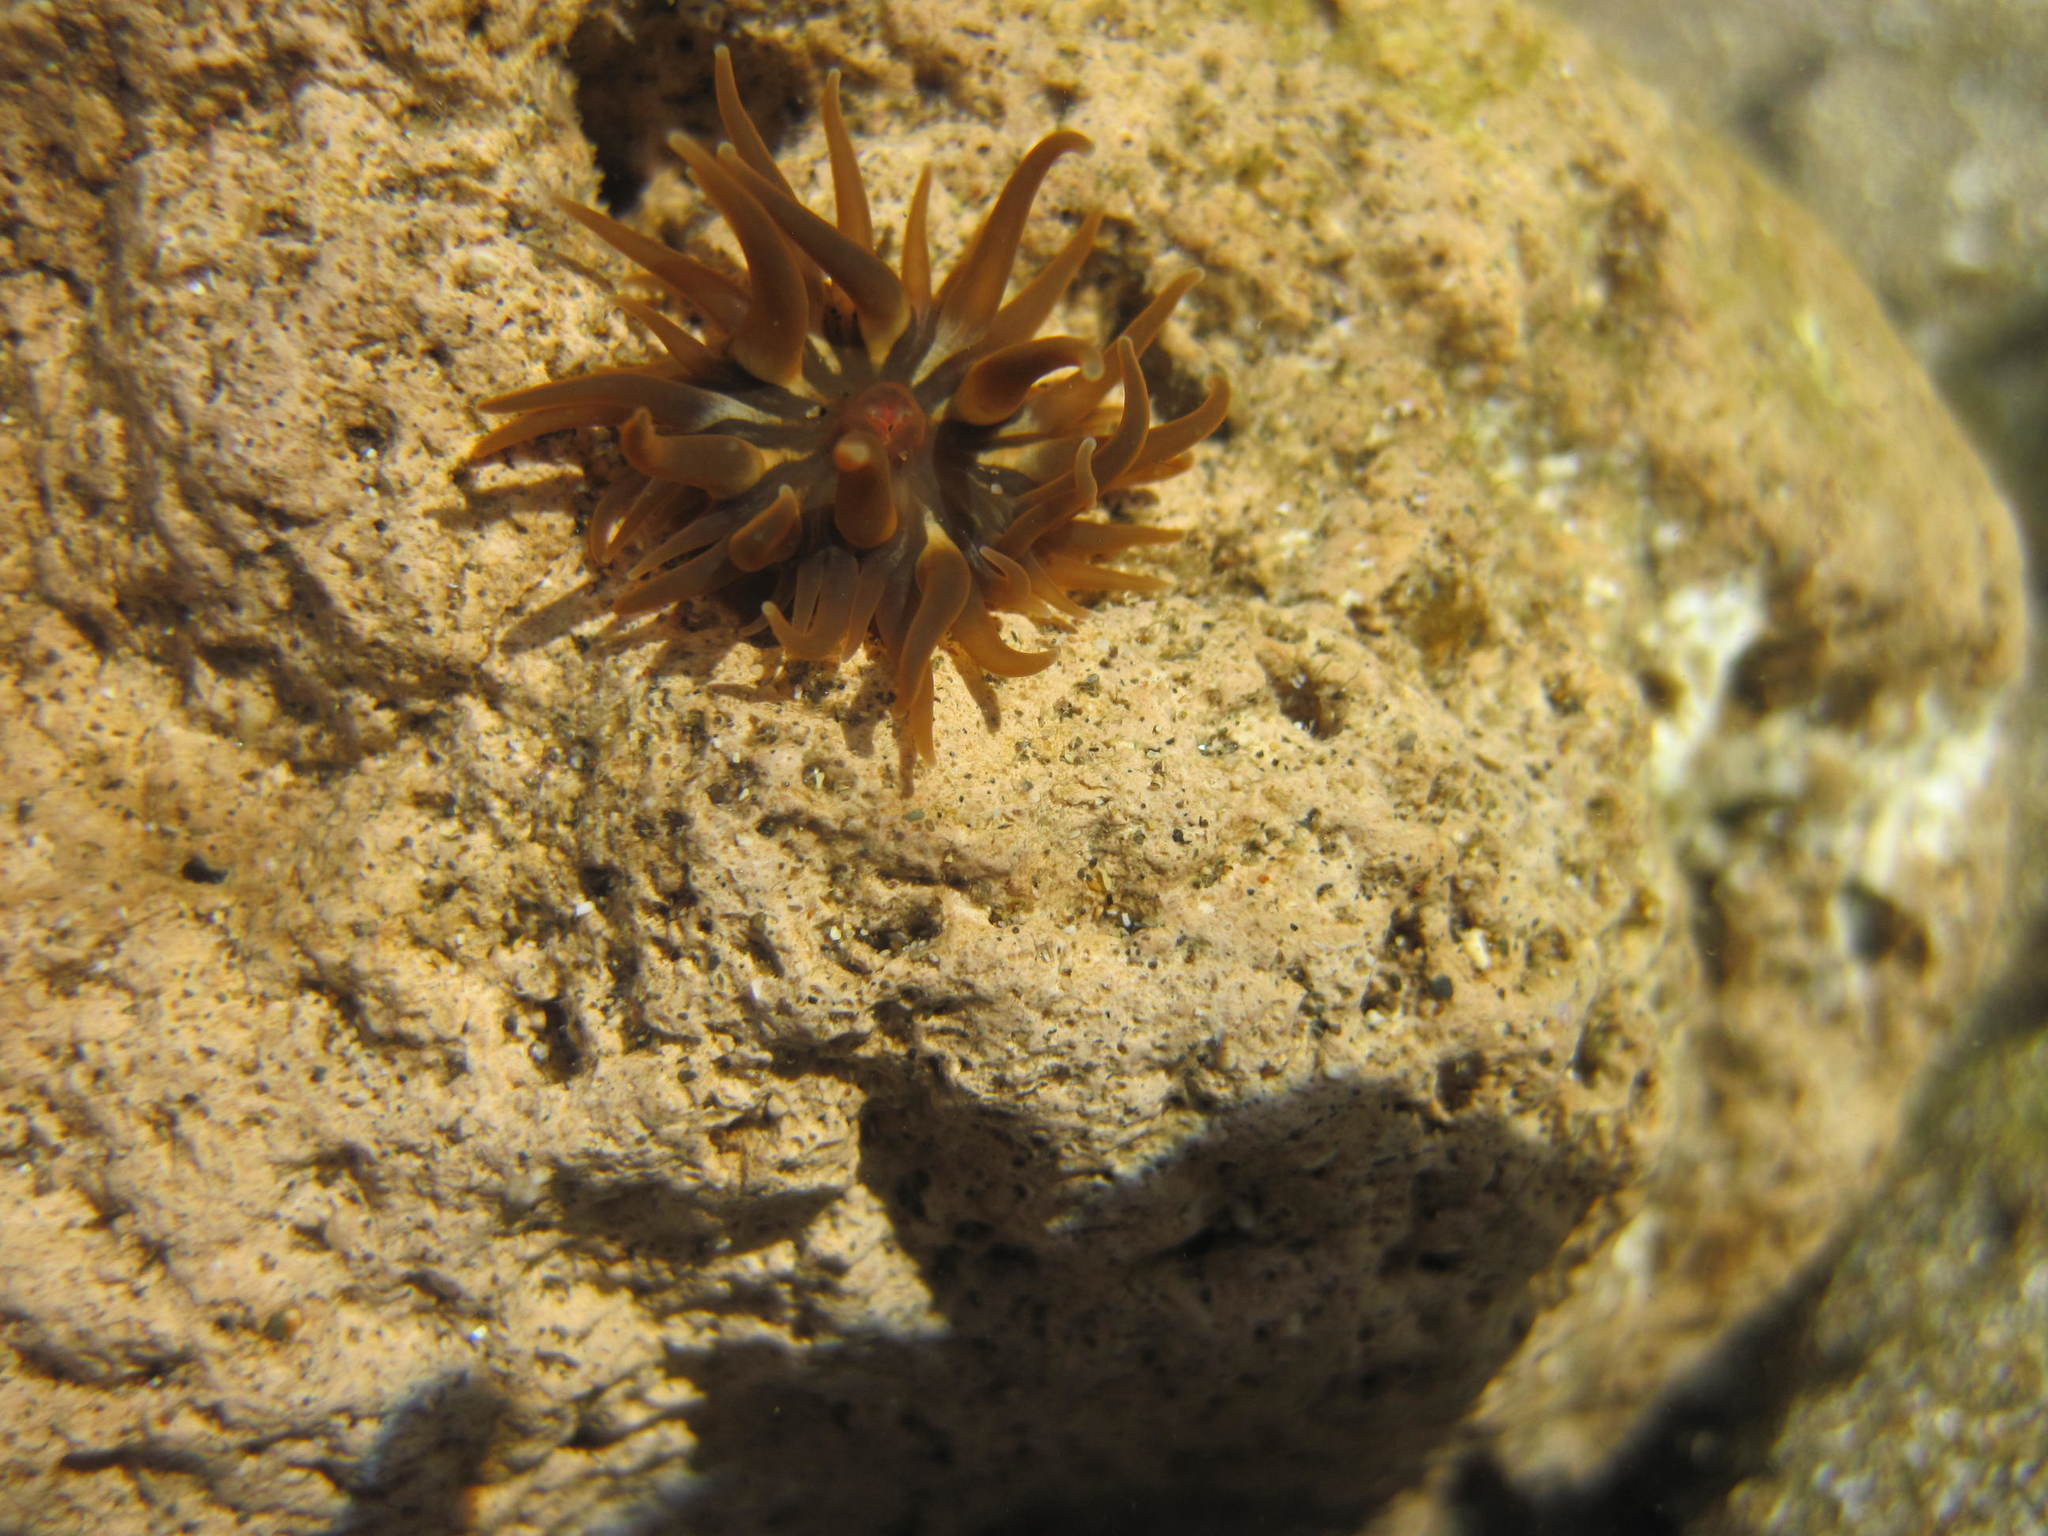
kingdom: Animalia
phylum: Cnidaria
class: Anthozoa
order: Actiniaria
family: Actiniidae
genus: Anemonia
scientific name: Anemonia sargassensis
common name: Sargassum anemone
